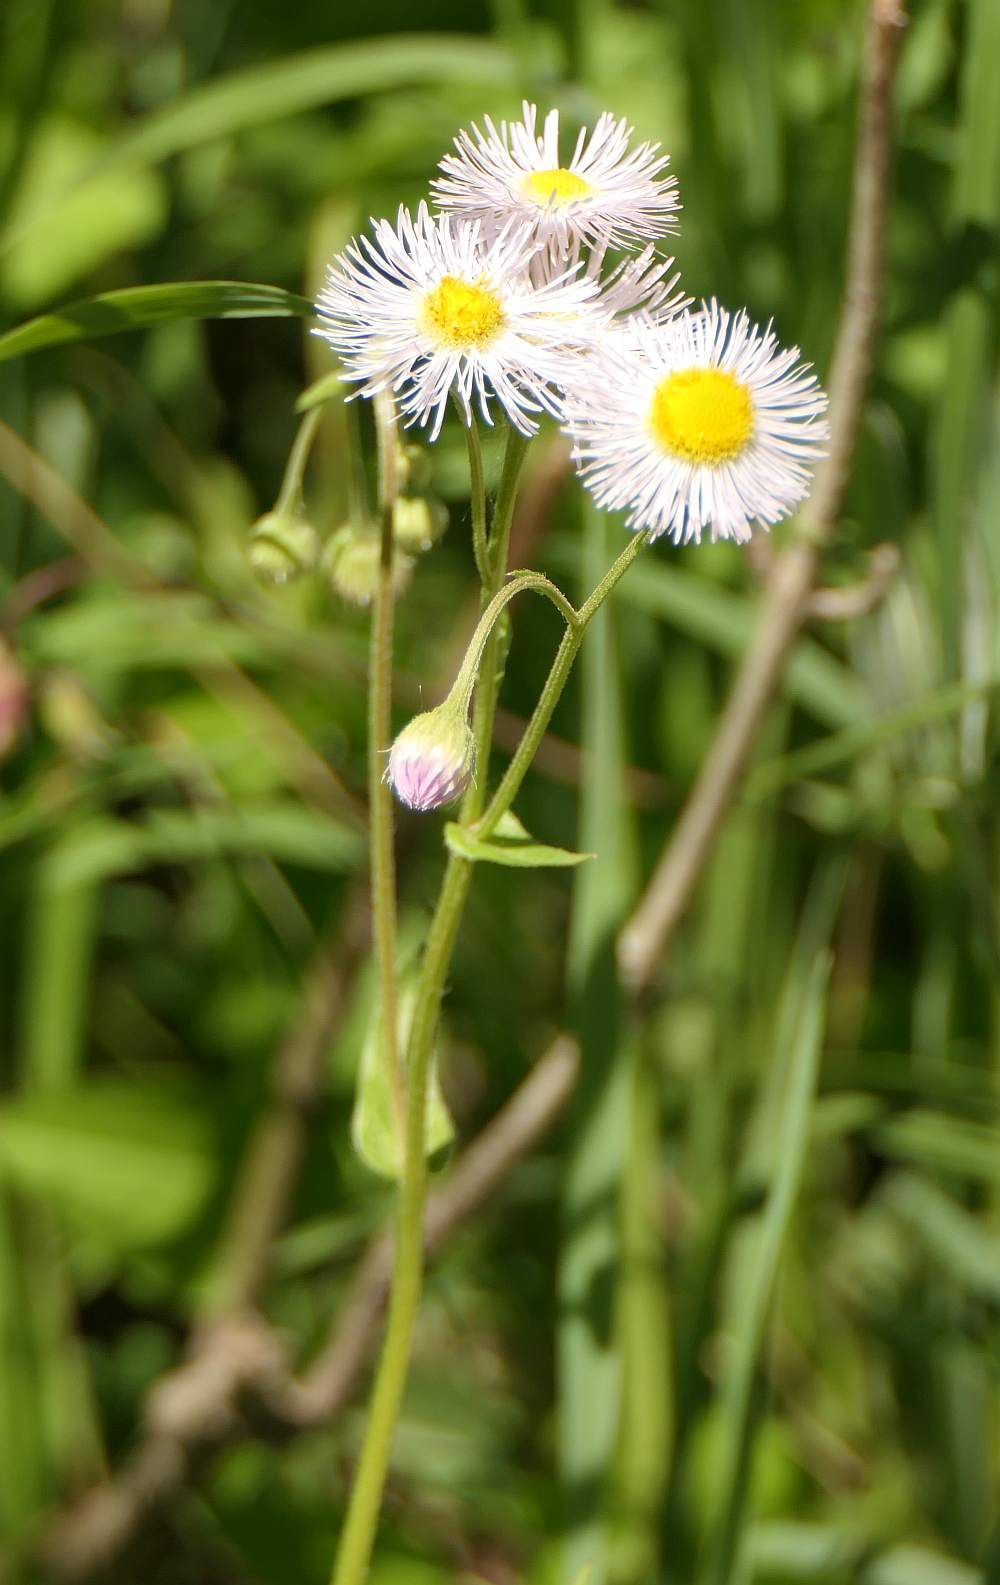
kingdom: Plantae
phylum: Tracheophyta
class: Magnoliopsida
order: Asterales
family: Asteraceae
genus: Erigeron
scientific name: Erigeron philadelphicus
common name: Robin's-plantain
